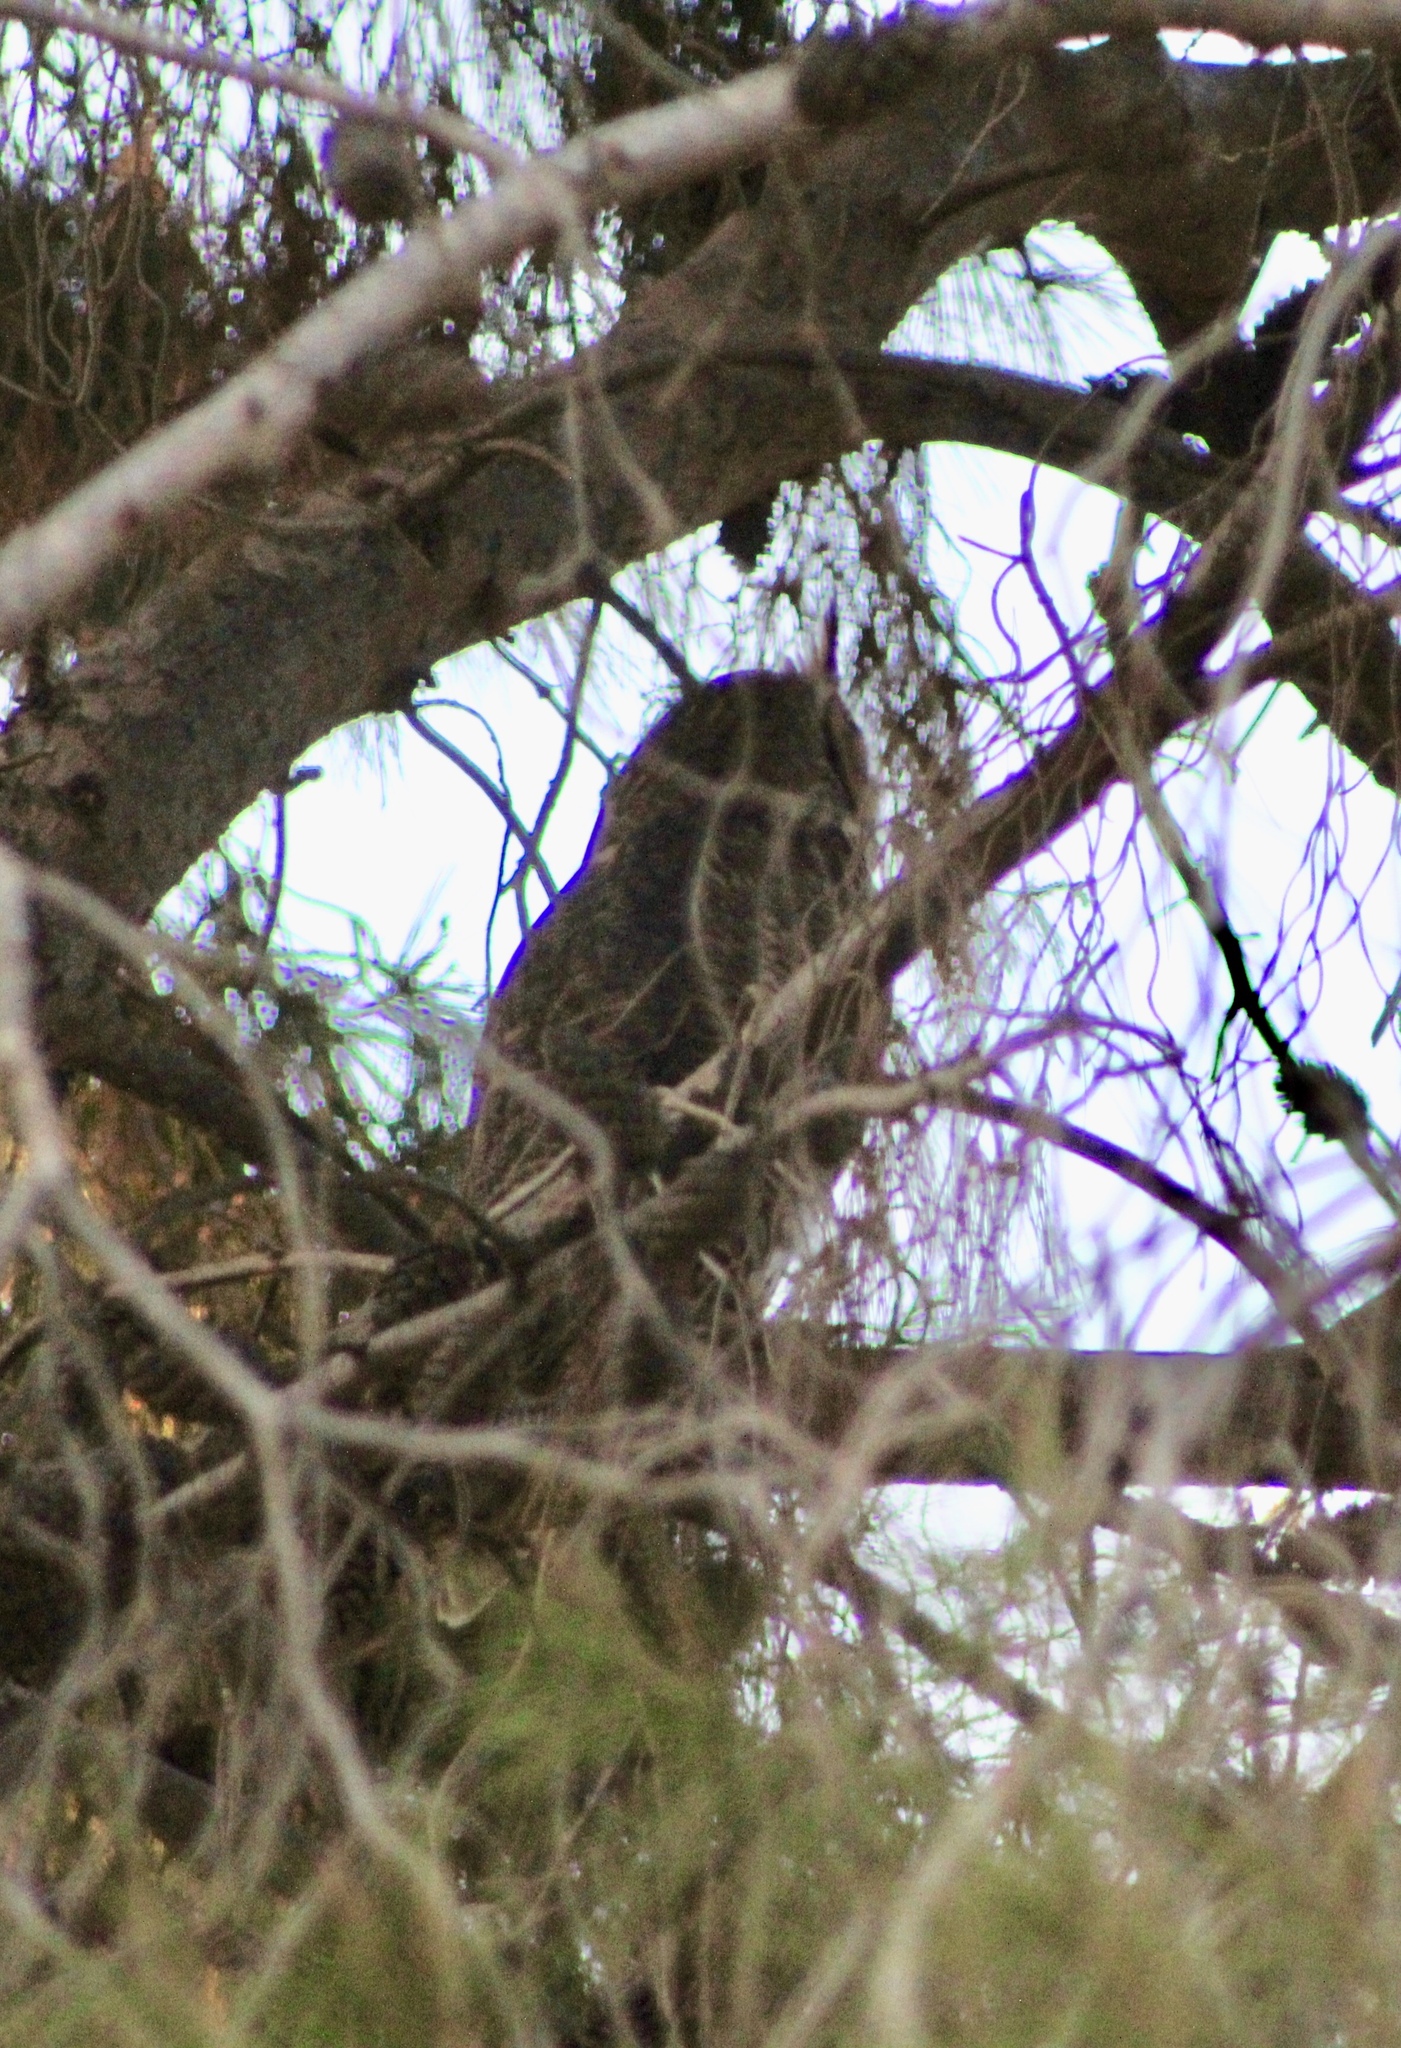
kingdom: Animalia
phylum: Chordata
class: Aves
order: Strigiformes
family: Strigidae
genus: Bubo
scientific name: Bubo virginianus
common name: Great horned owl
